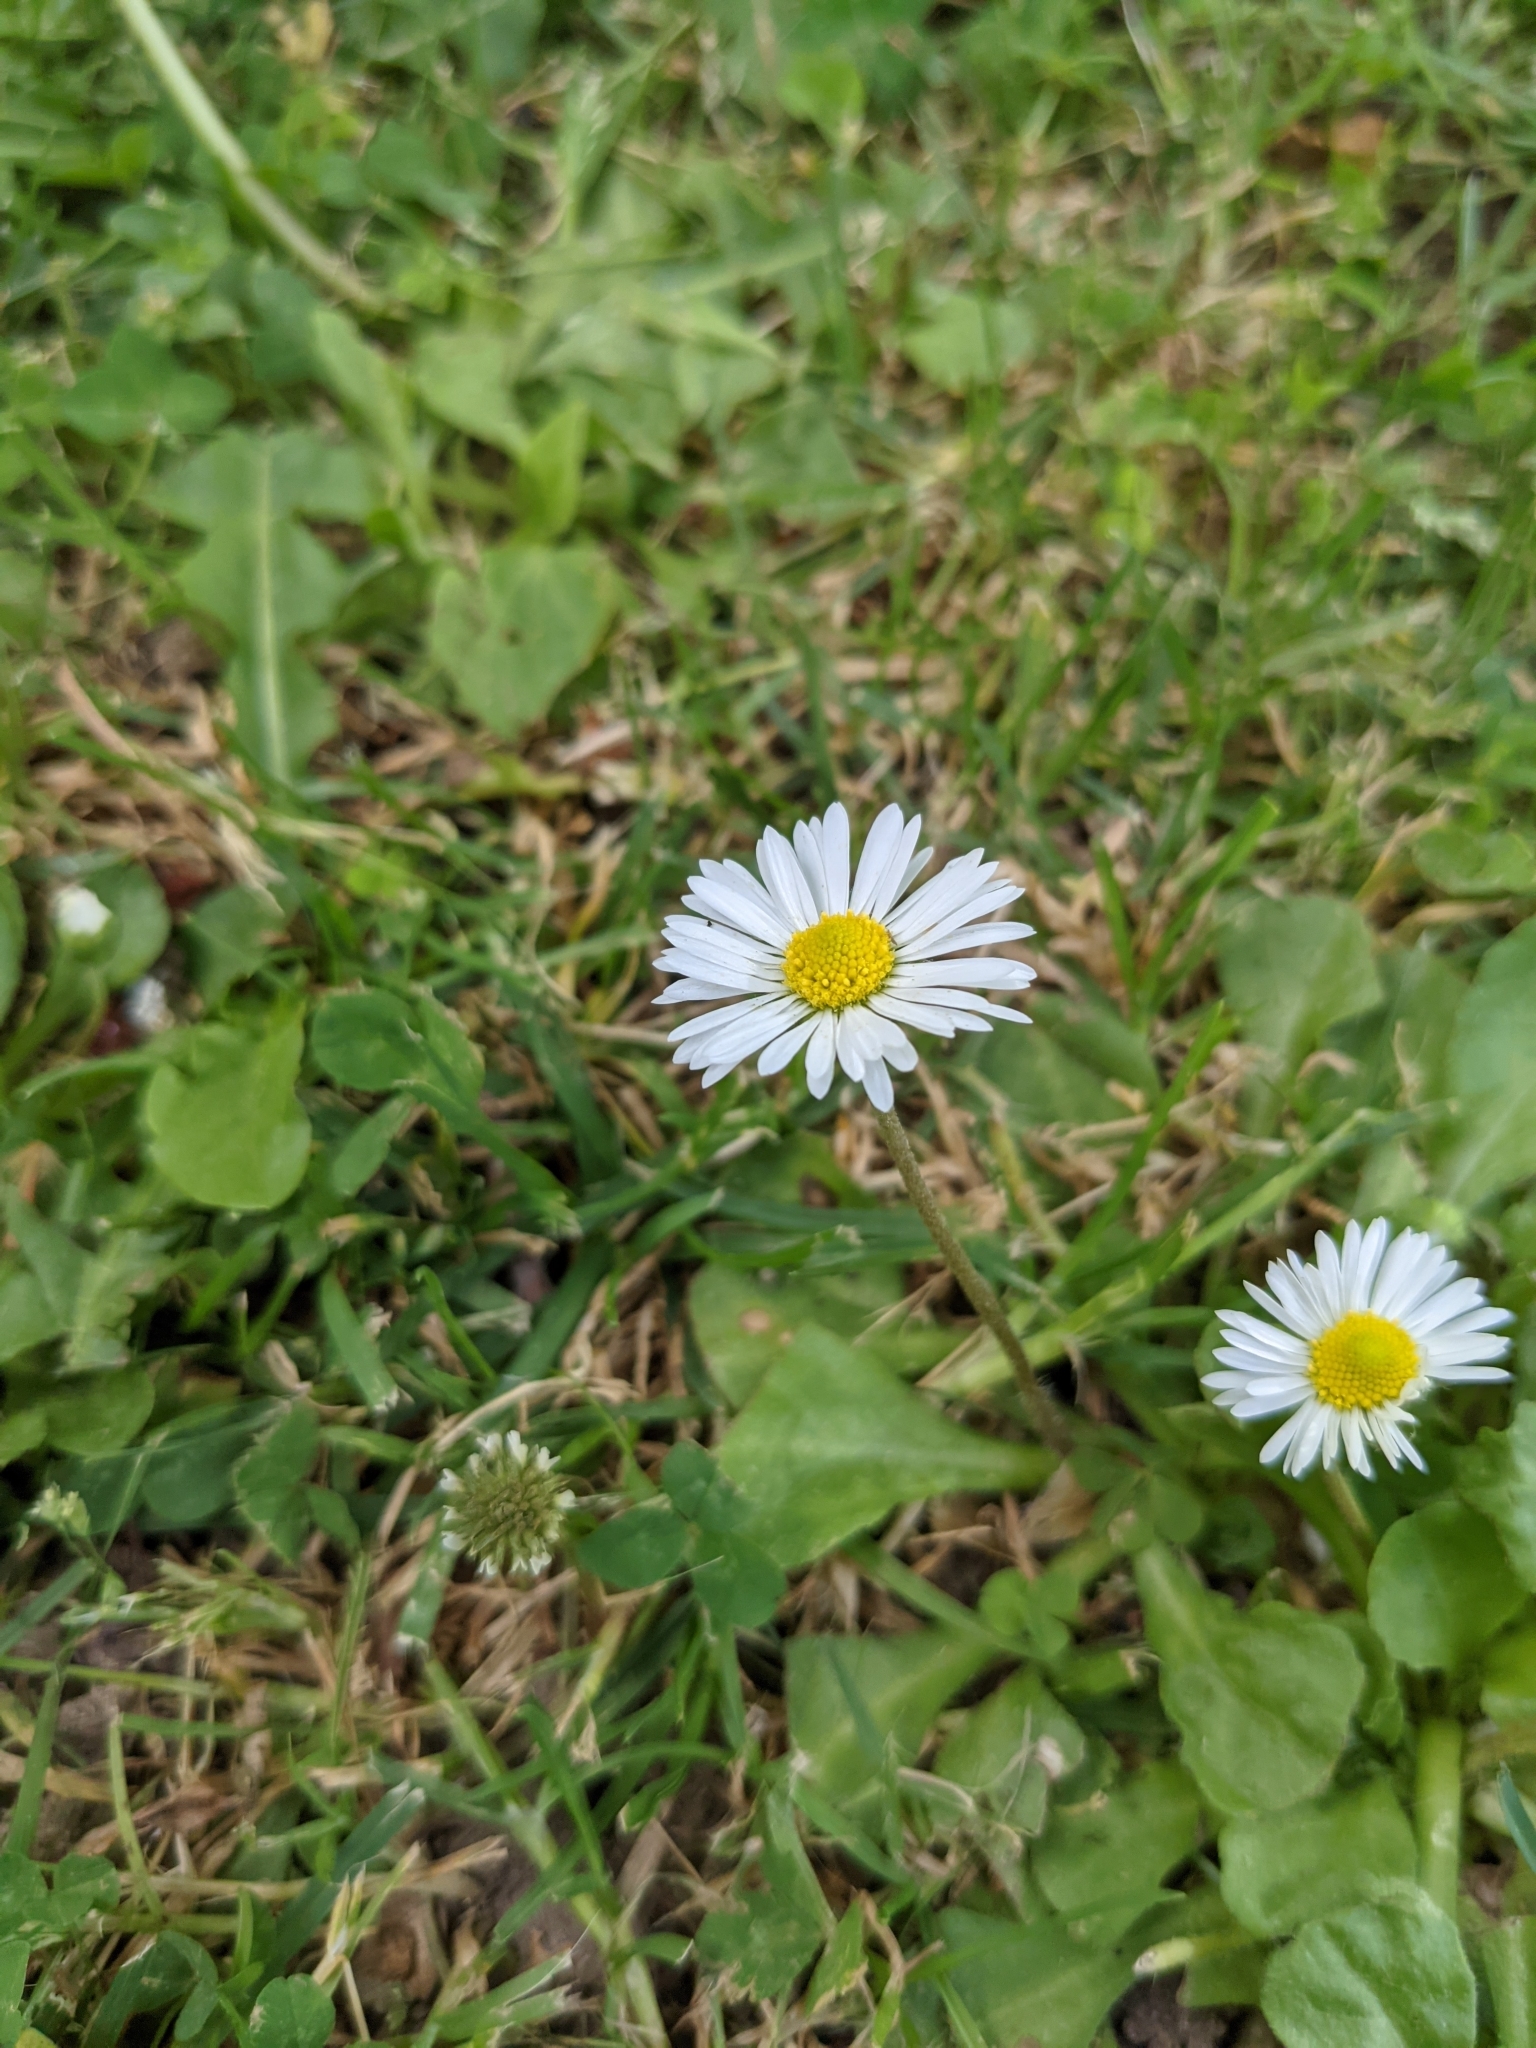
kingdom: Plantae
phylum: Tracheophyta
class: Magnoliopsida
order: Asterales
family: Asteraceae
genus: Bellis
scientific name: Bellis perennis
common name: Lawndaisy
